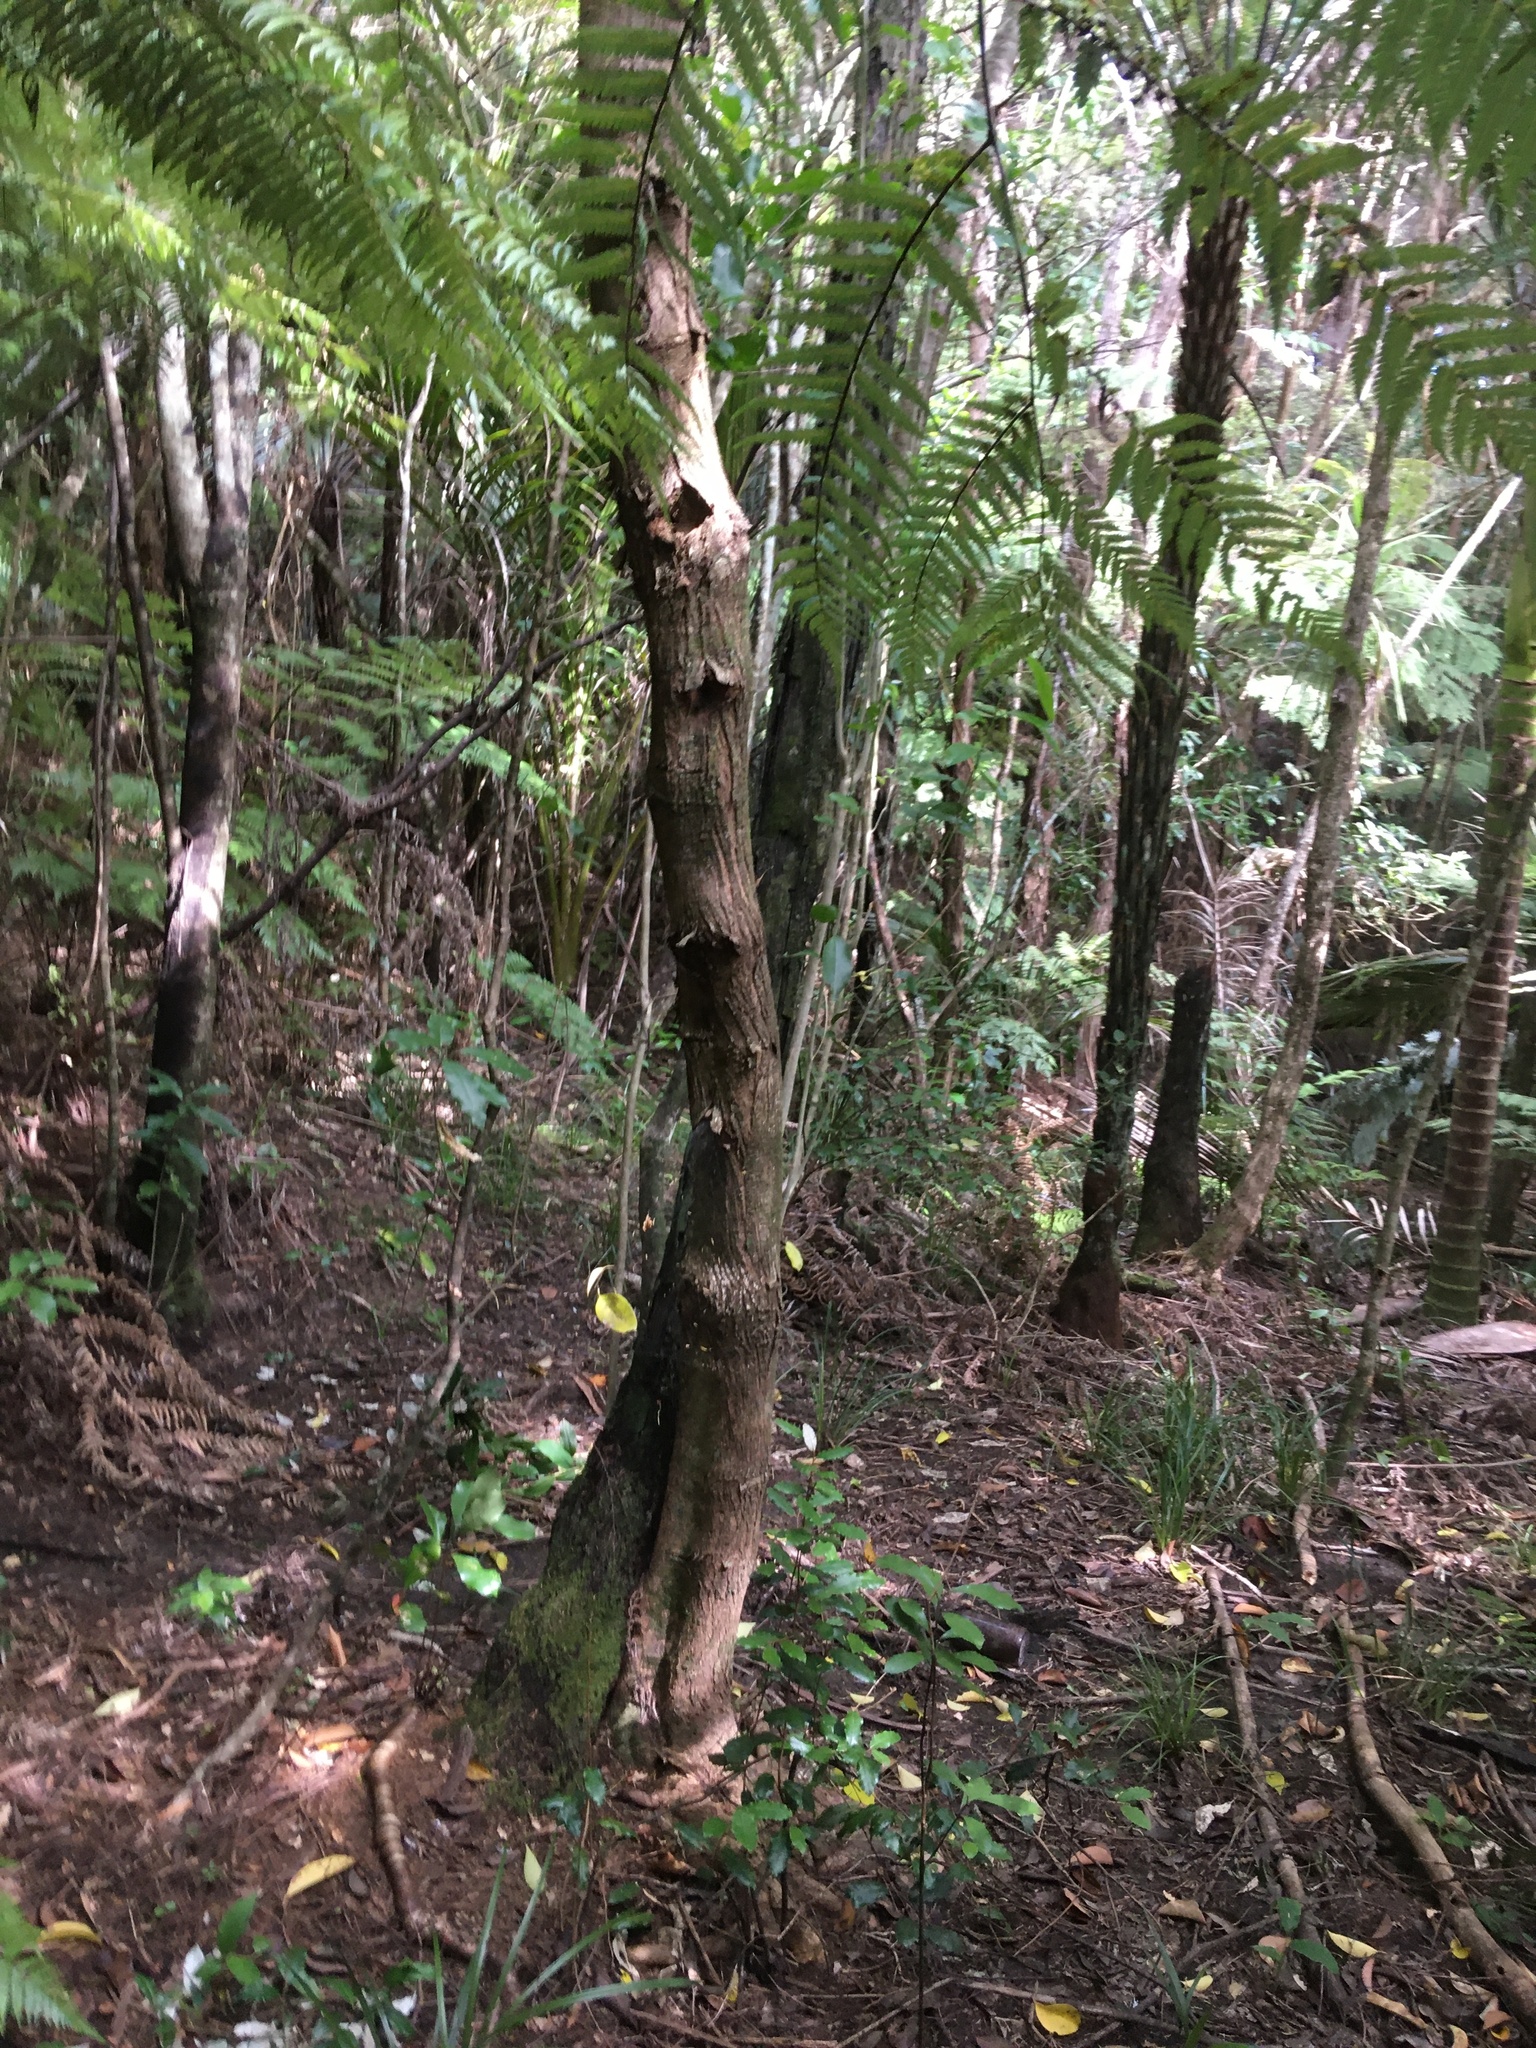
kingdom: Plantae
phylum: Tracheophyta
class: Magnoliopsida
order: Lamiales
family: Oleaceae
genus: Ligustrum
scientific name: Ligustrum lucidum
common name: Glossy privet
